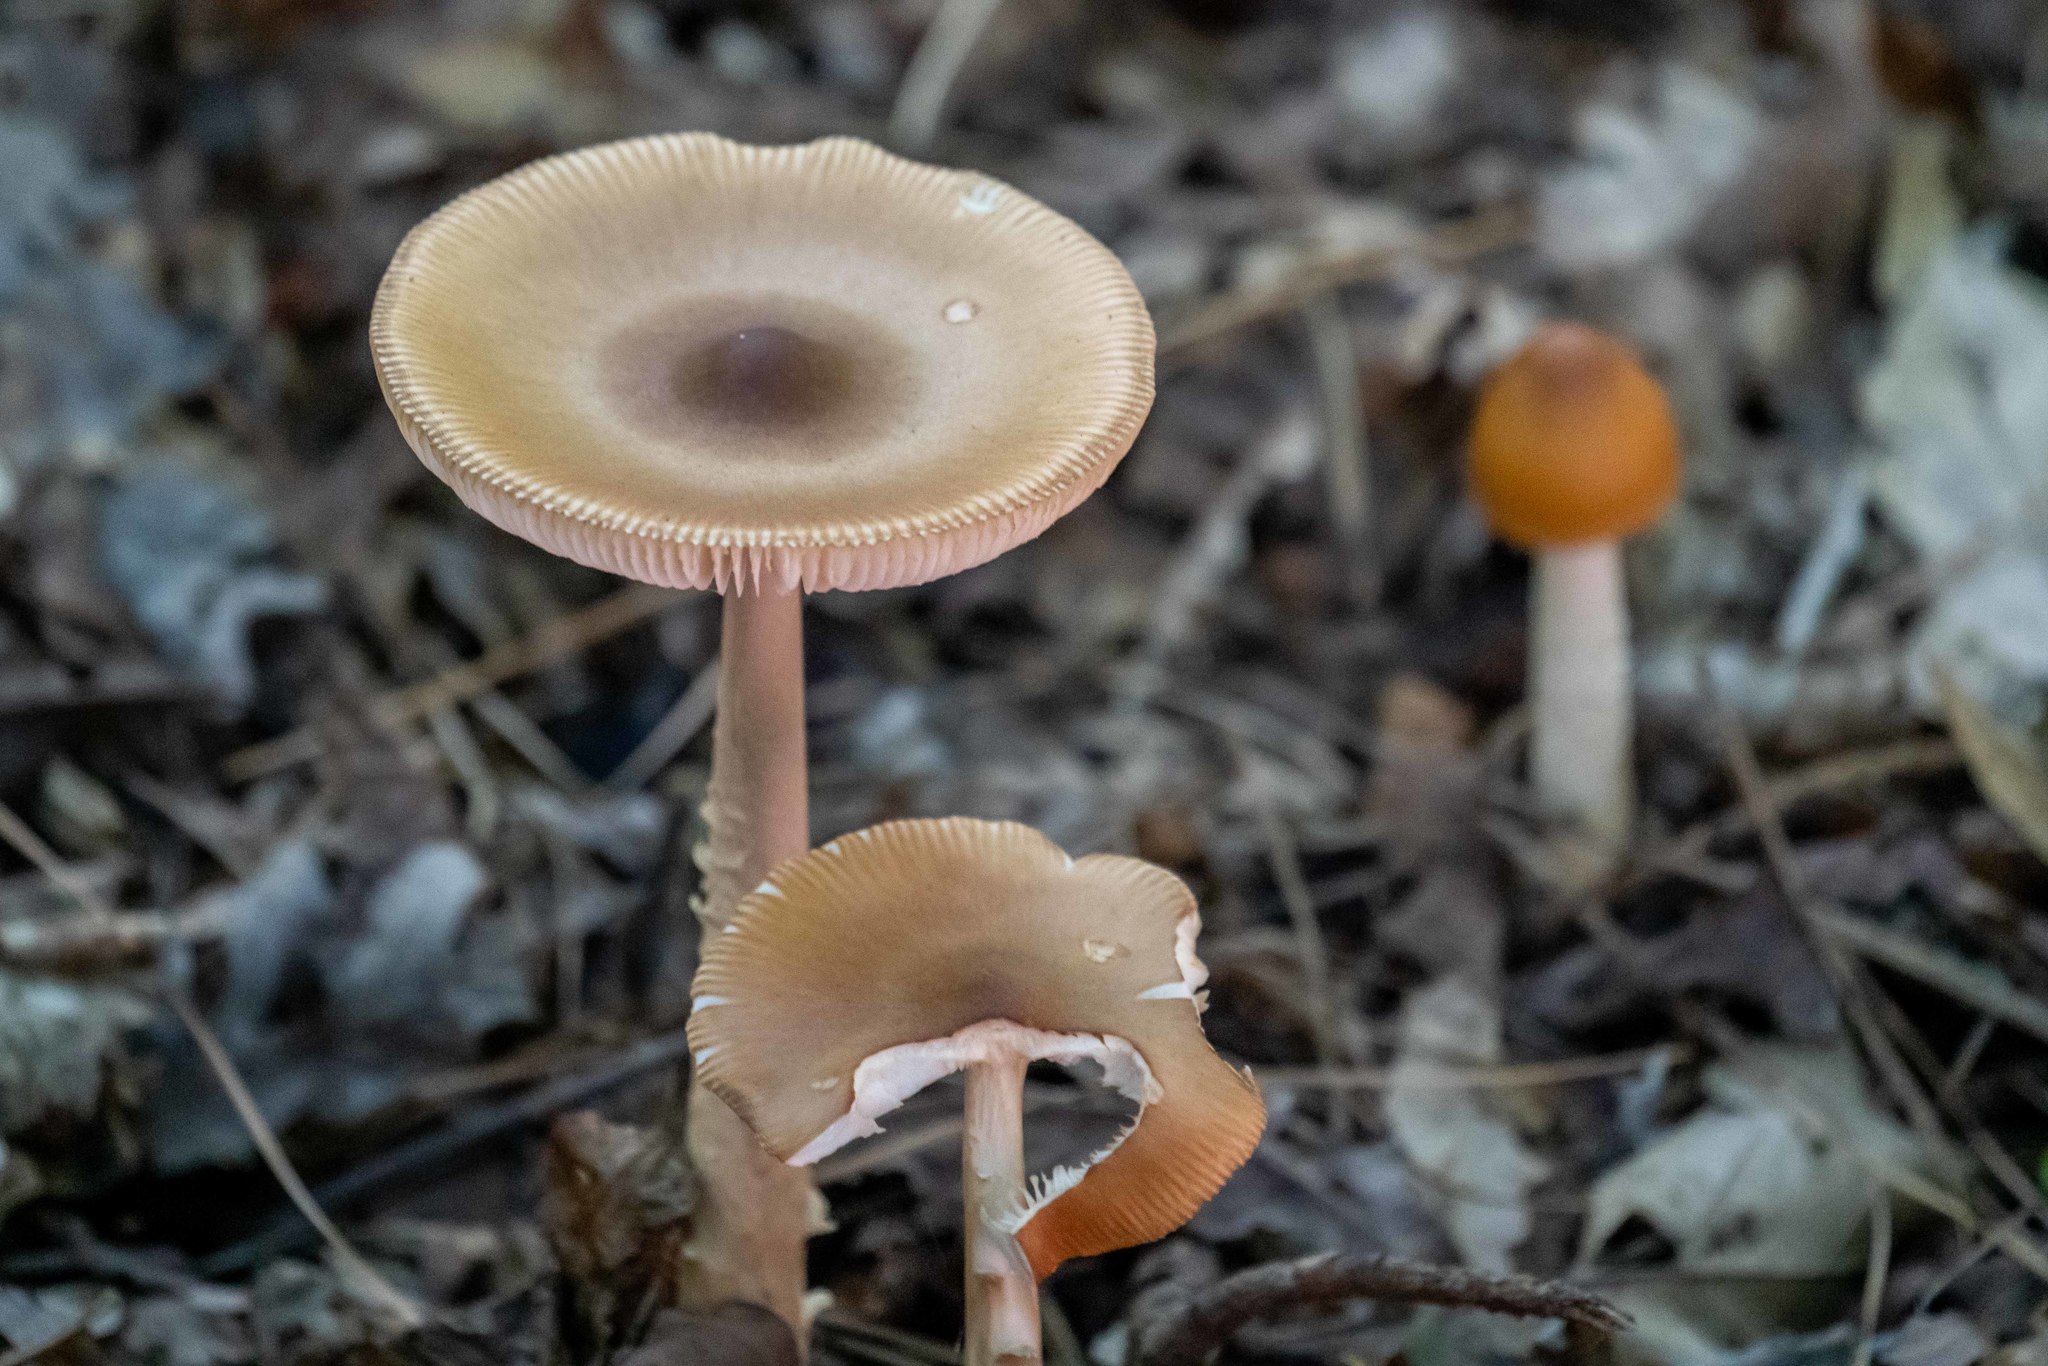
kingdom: Fungi
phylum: Basidiomycota
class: Agaricomycetes
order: Agaricales
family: Amanitaceae
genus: Amanita
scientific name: Amanita fulva
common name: Tawny grisette
